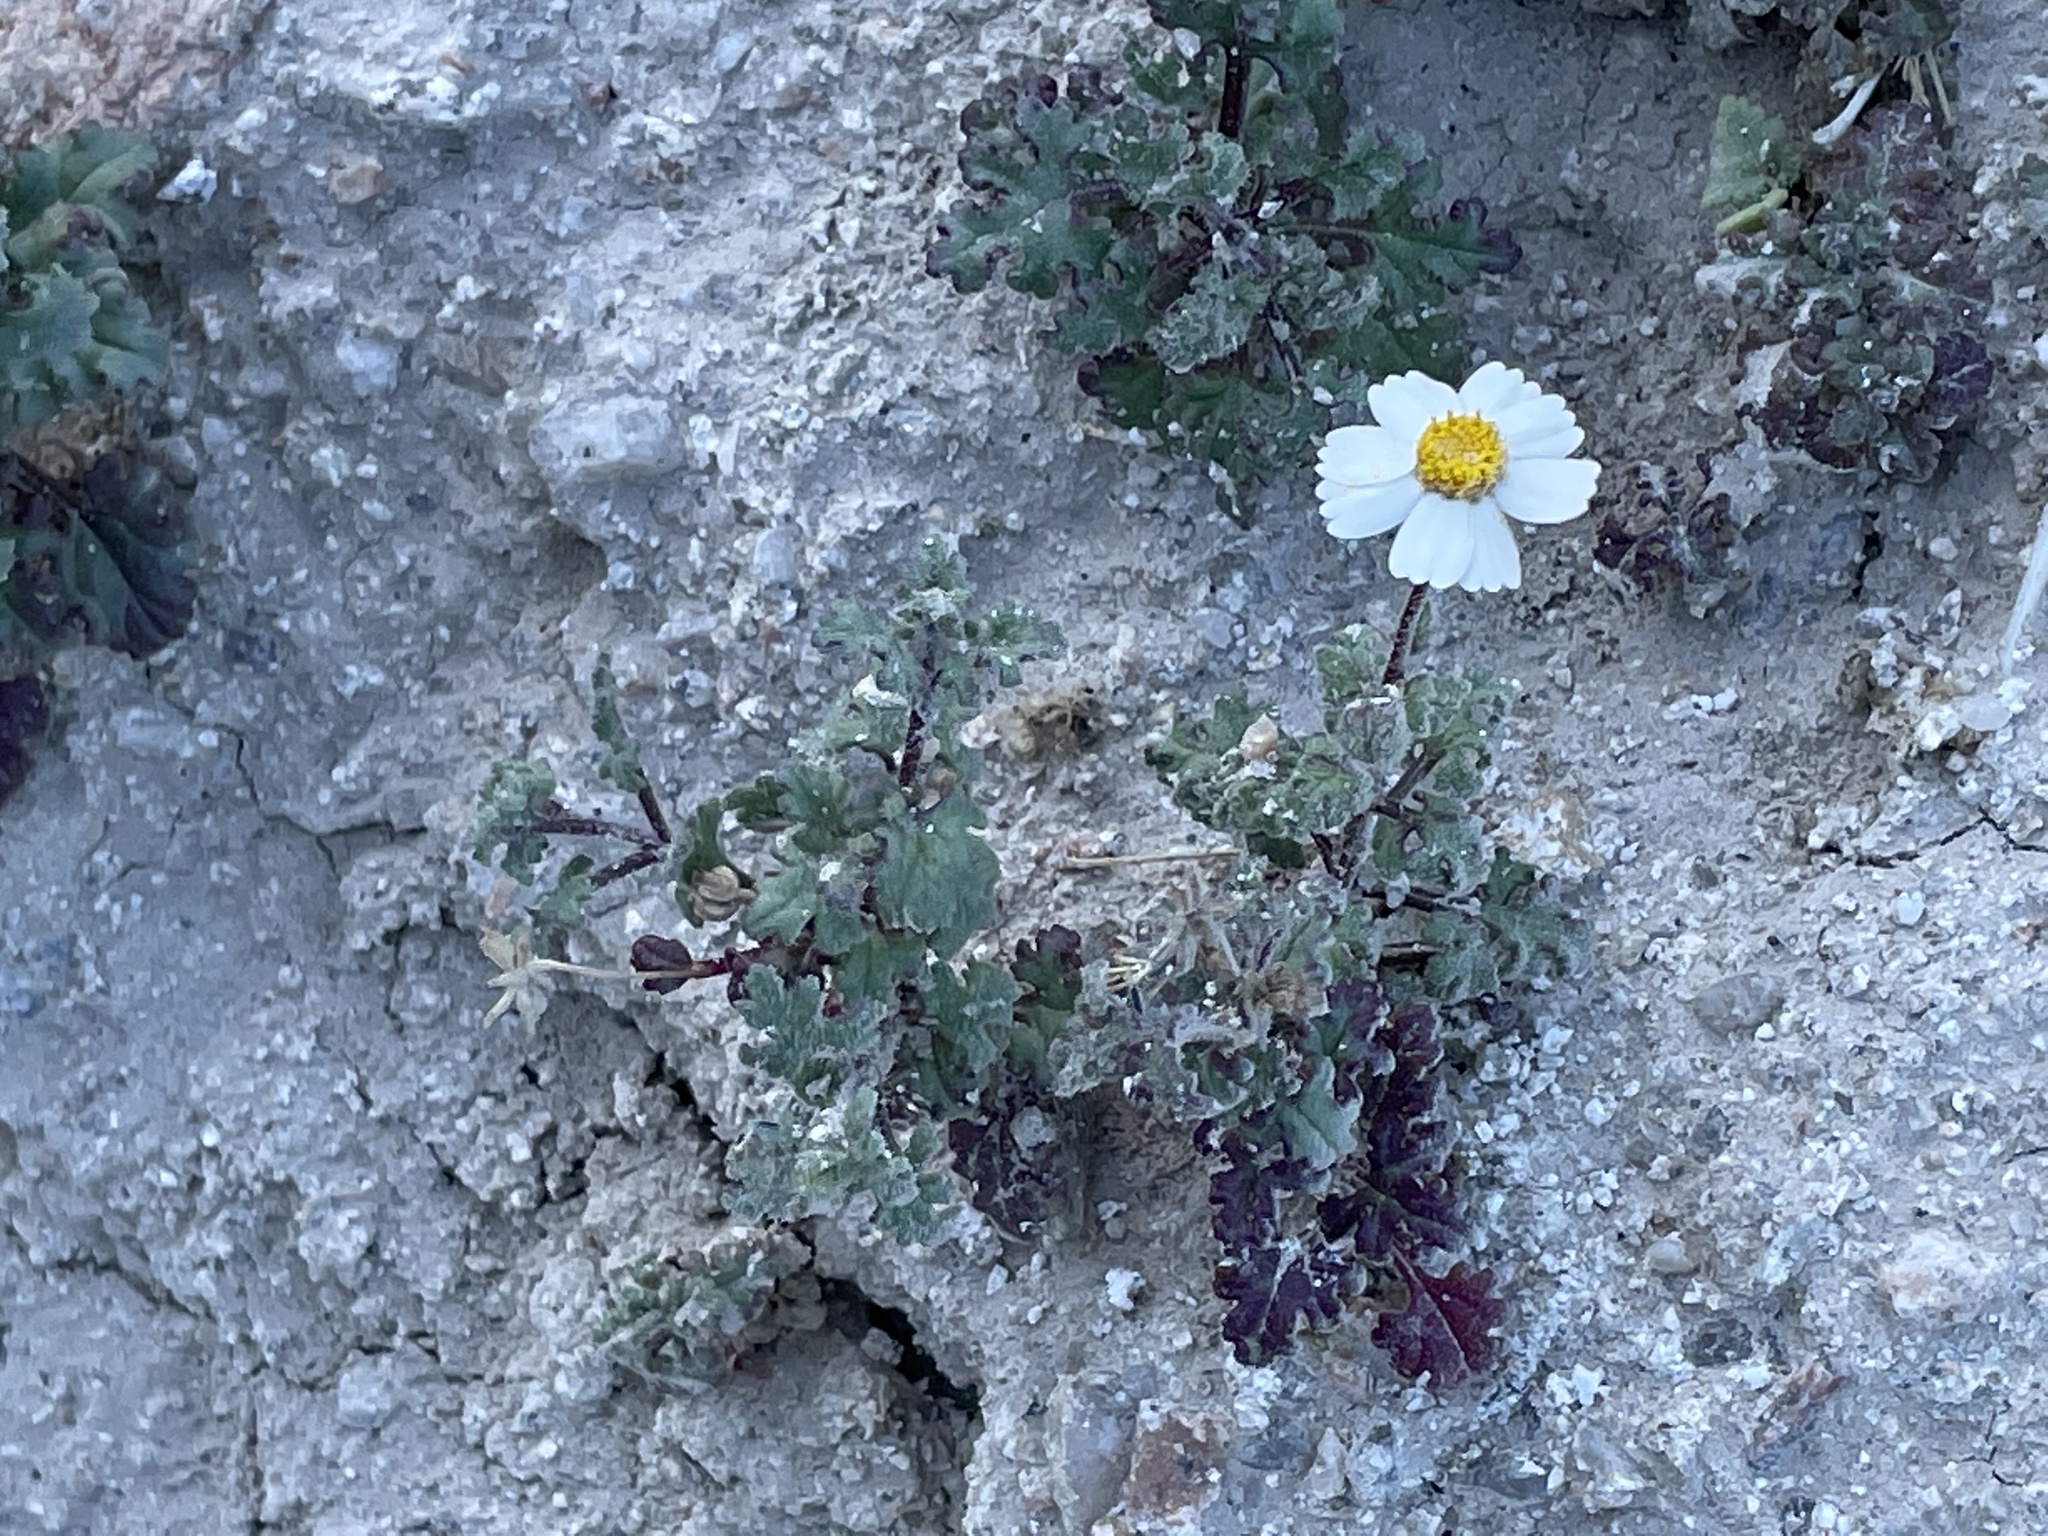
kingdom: Plantae
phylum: Tracheophyta
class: Magnoliopsida
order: Asterales
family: Asteraceae
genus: Perityle
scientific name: Perityle crassifolia
